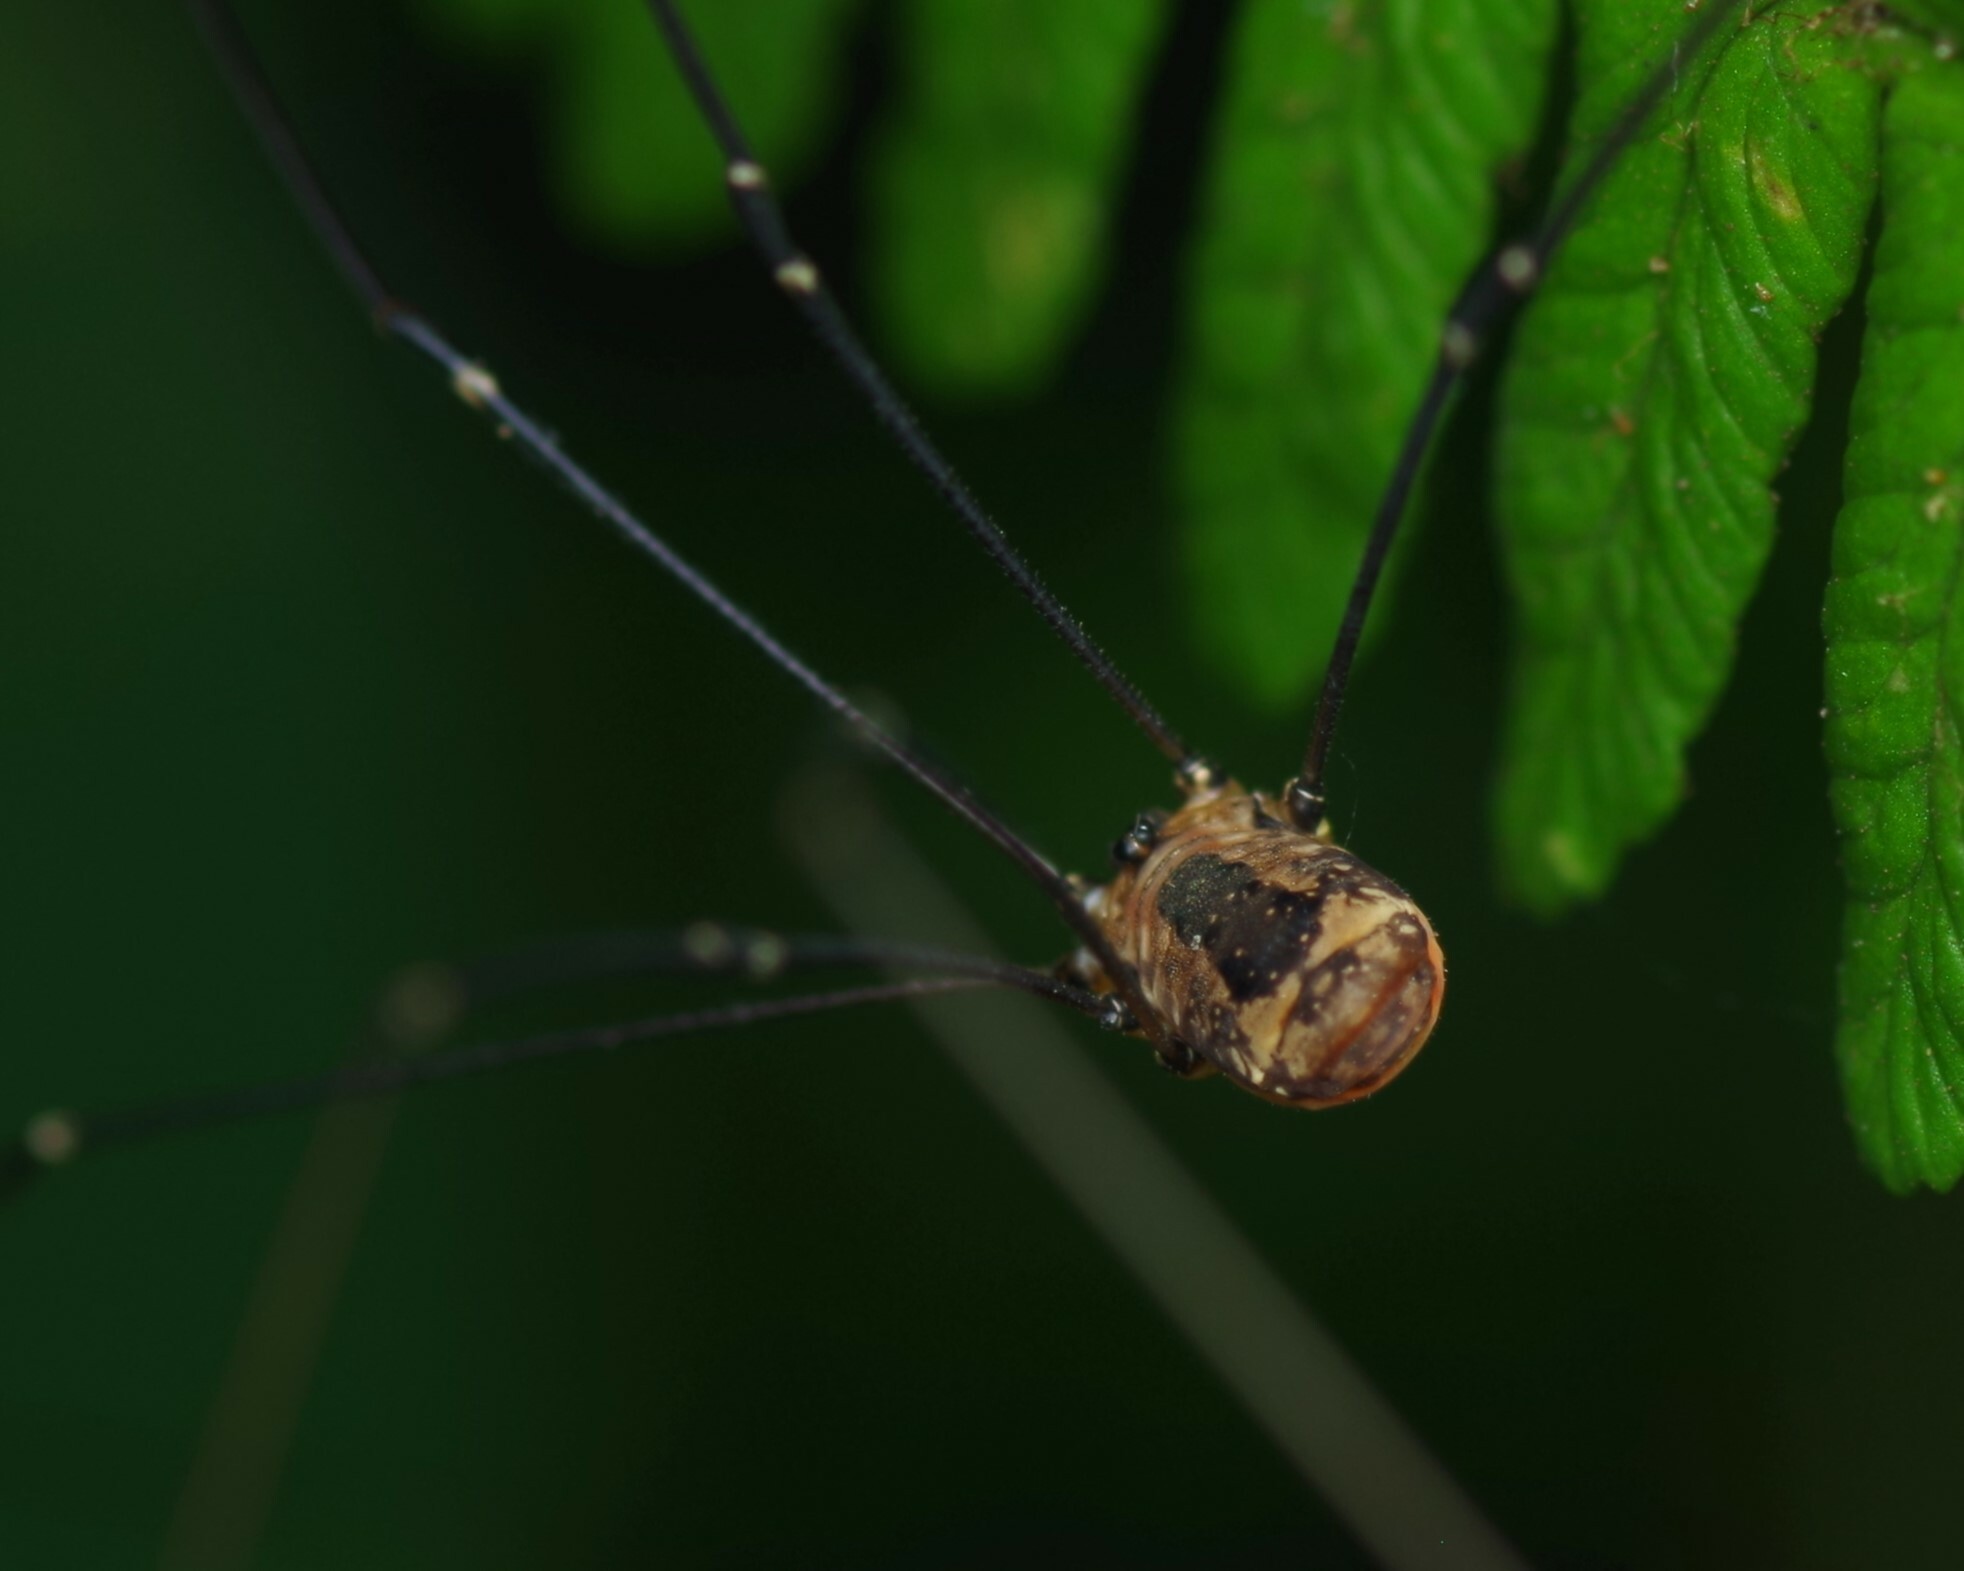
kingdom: Animalia
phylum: Arthropoda
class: Arachnida
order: Opiliones
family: Sclerosomatidae
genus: Leiobunum
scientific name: Leiobunum rotundum
